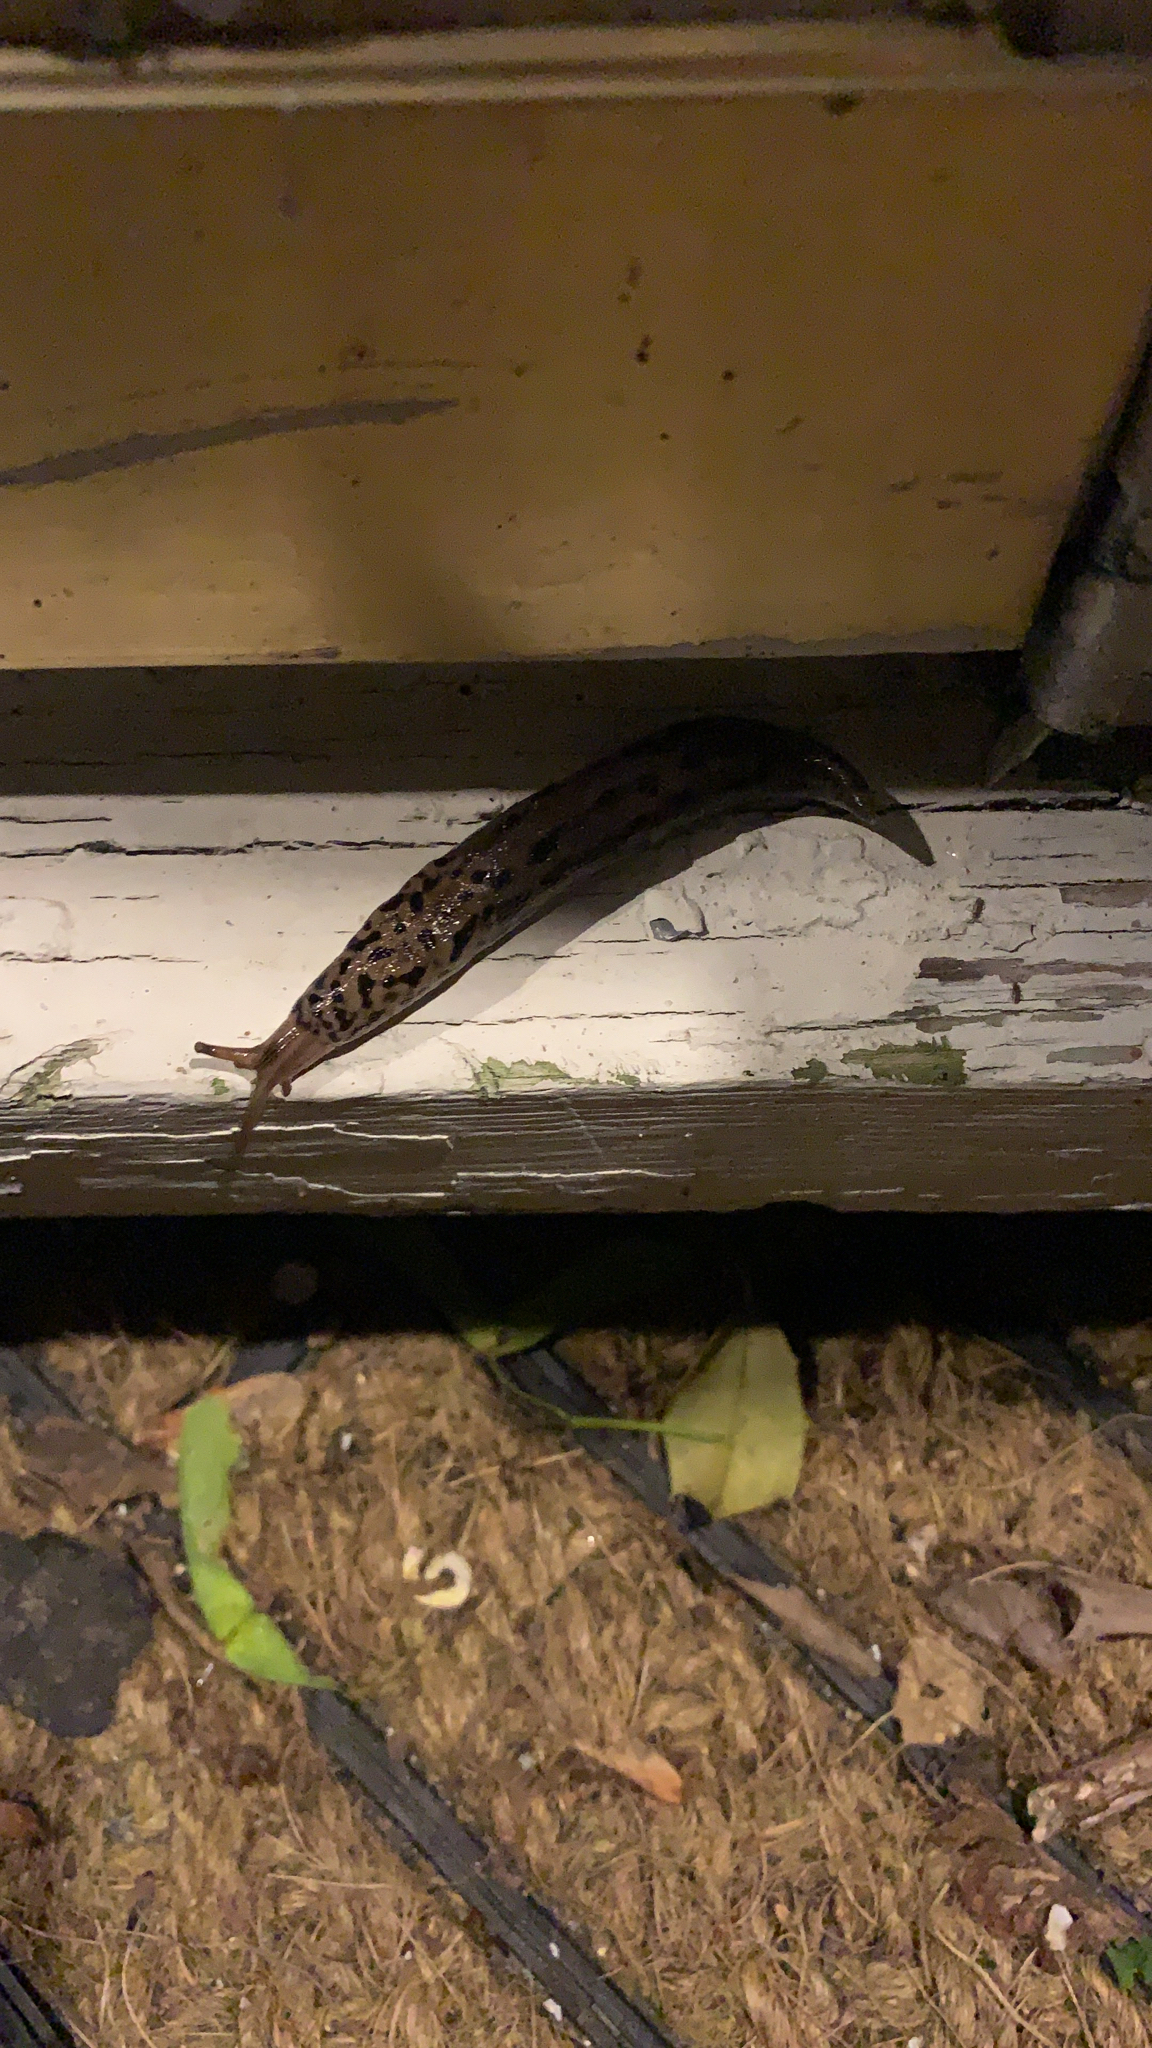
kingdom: Animalia
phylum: Mollusca
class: Gastropoda
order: Stylommatophora
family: Limacidae
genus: Limax
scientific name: Limax maximus
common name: Great grey slug
